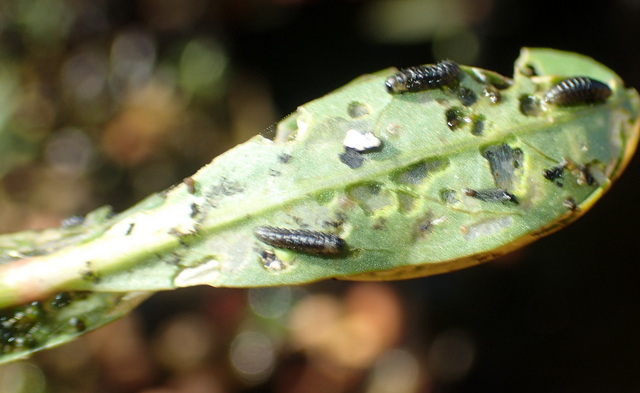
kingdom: Animalia
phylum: Arthropoda
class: Insecta
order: Coleoptera
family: Chrysomelidae
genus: Agasicles
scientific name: Agasicles hygrophila
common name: Alligatorweed flea beetle
